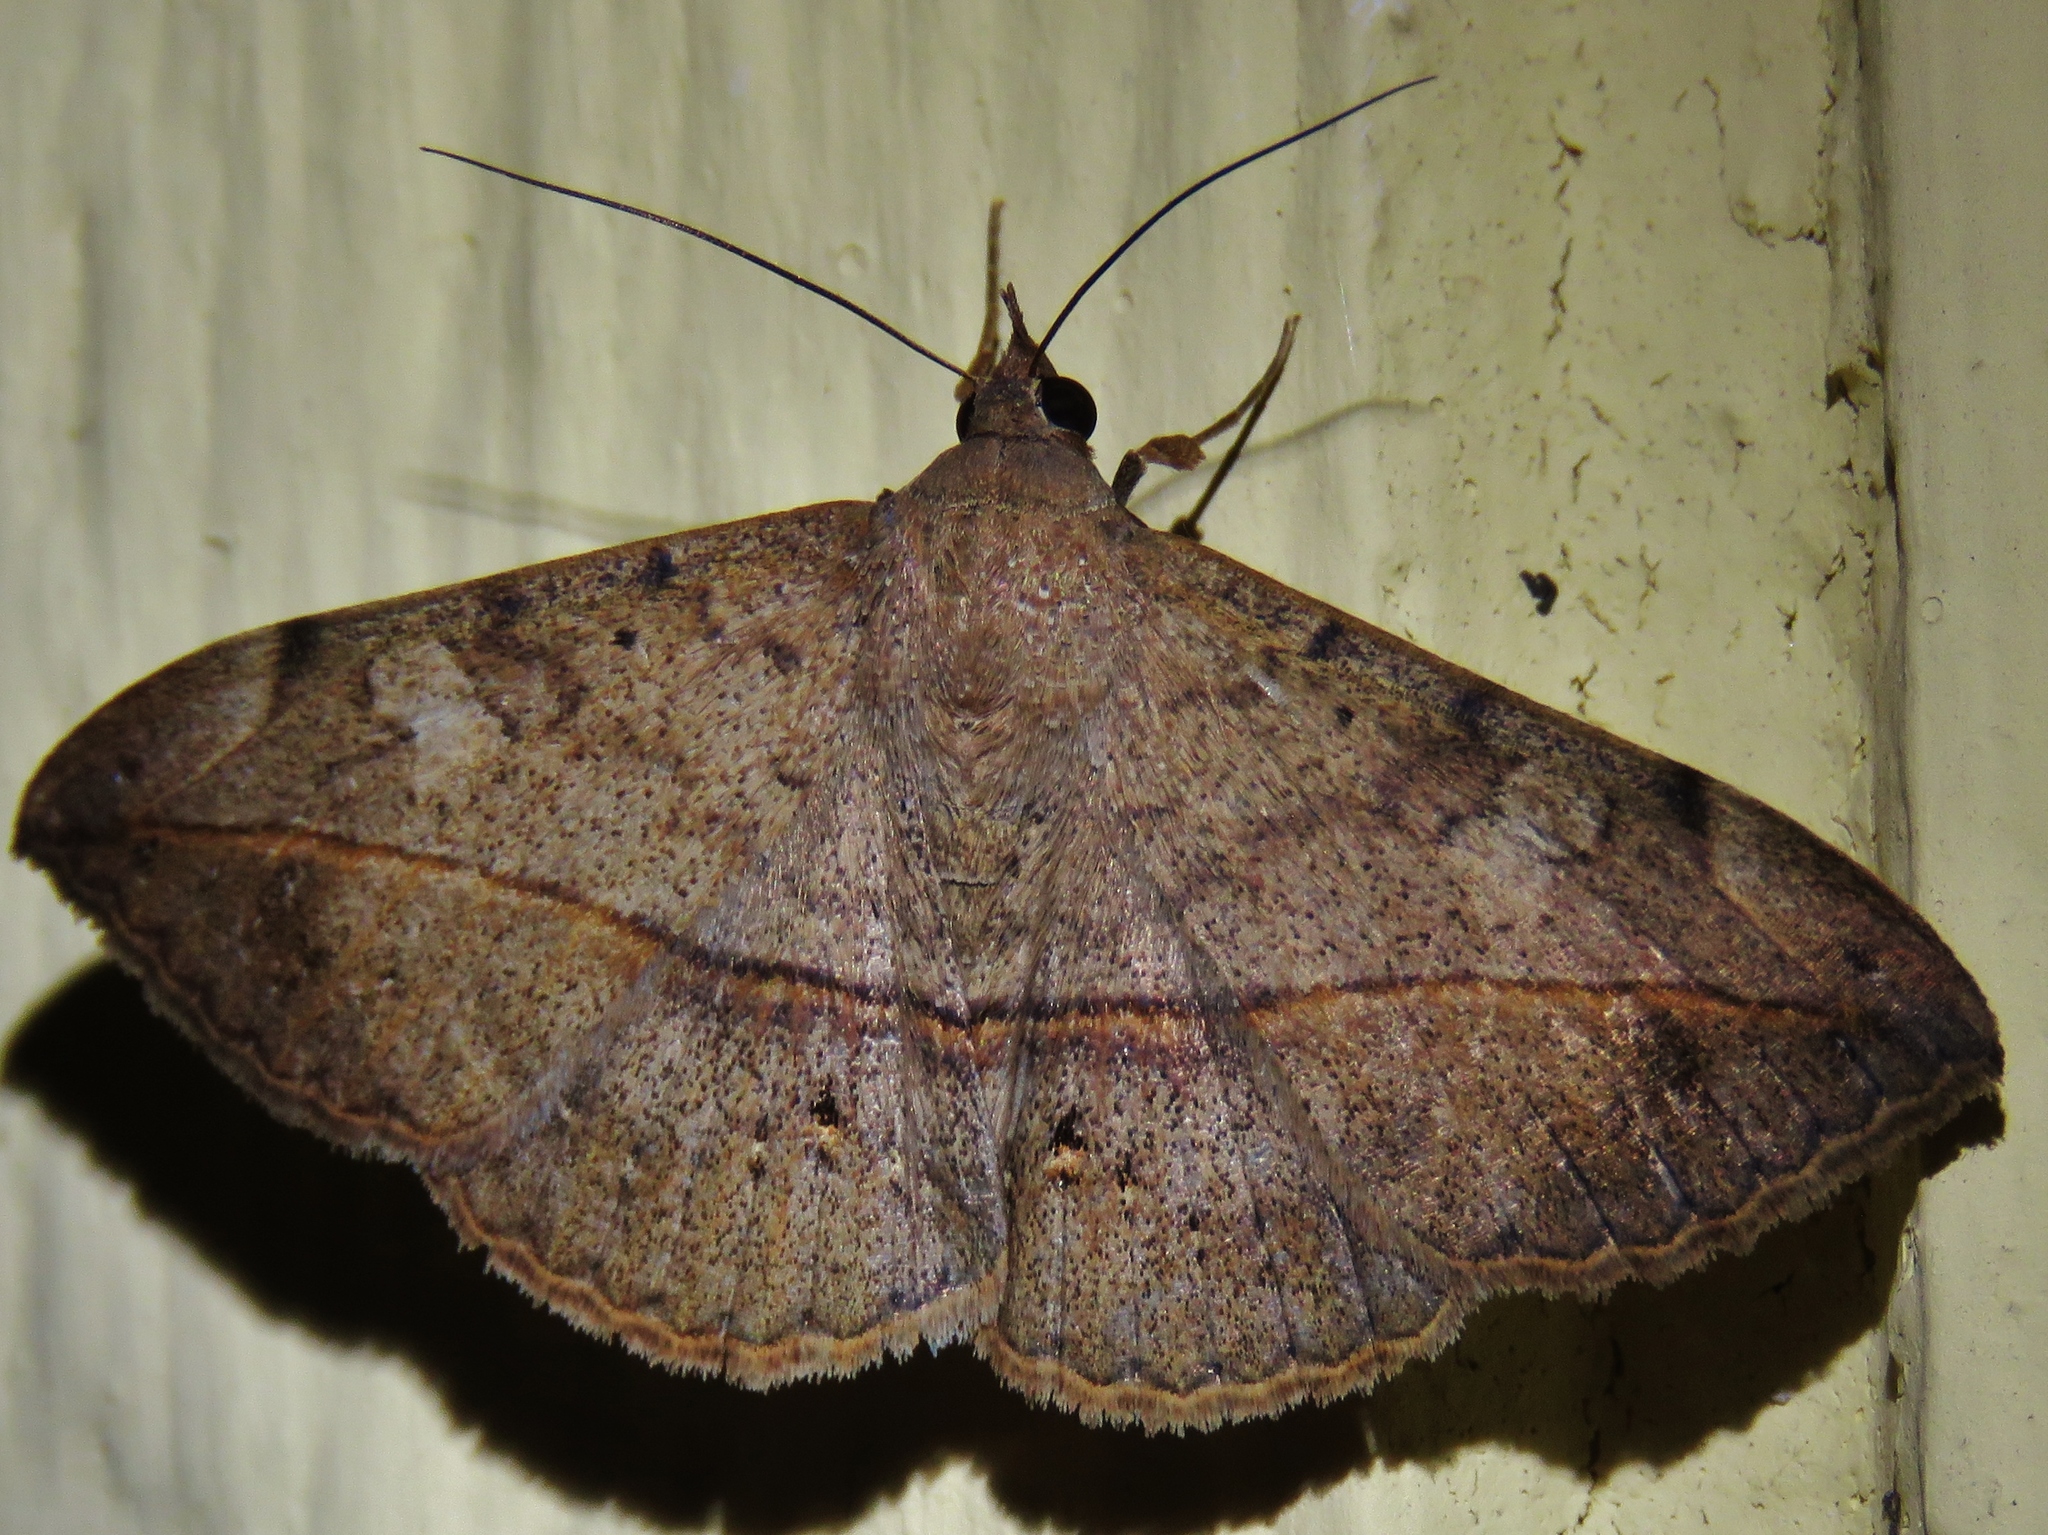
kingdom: Animalia
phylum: Arthropoda
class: Insecta
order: Lepidoptera
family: Erebidae
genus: Anticarsia
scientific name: Anticarsia gemmatalis
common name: Cutworm moth
